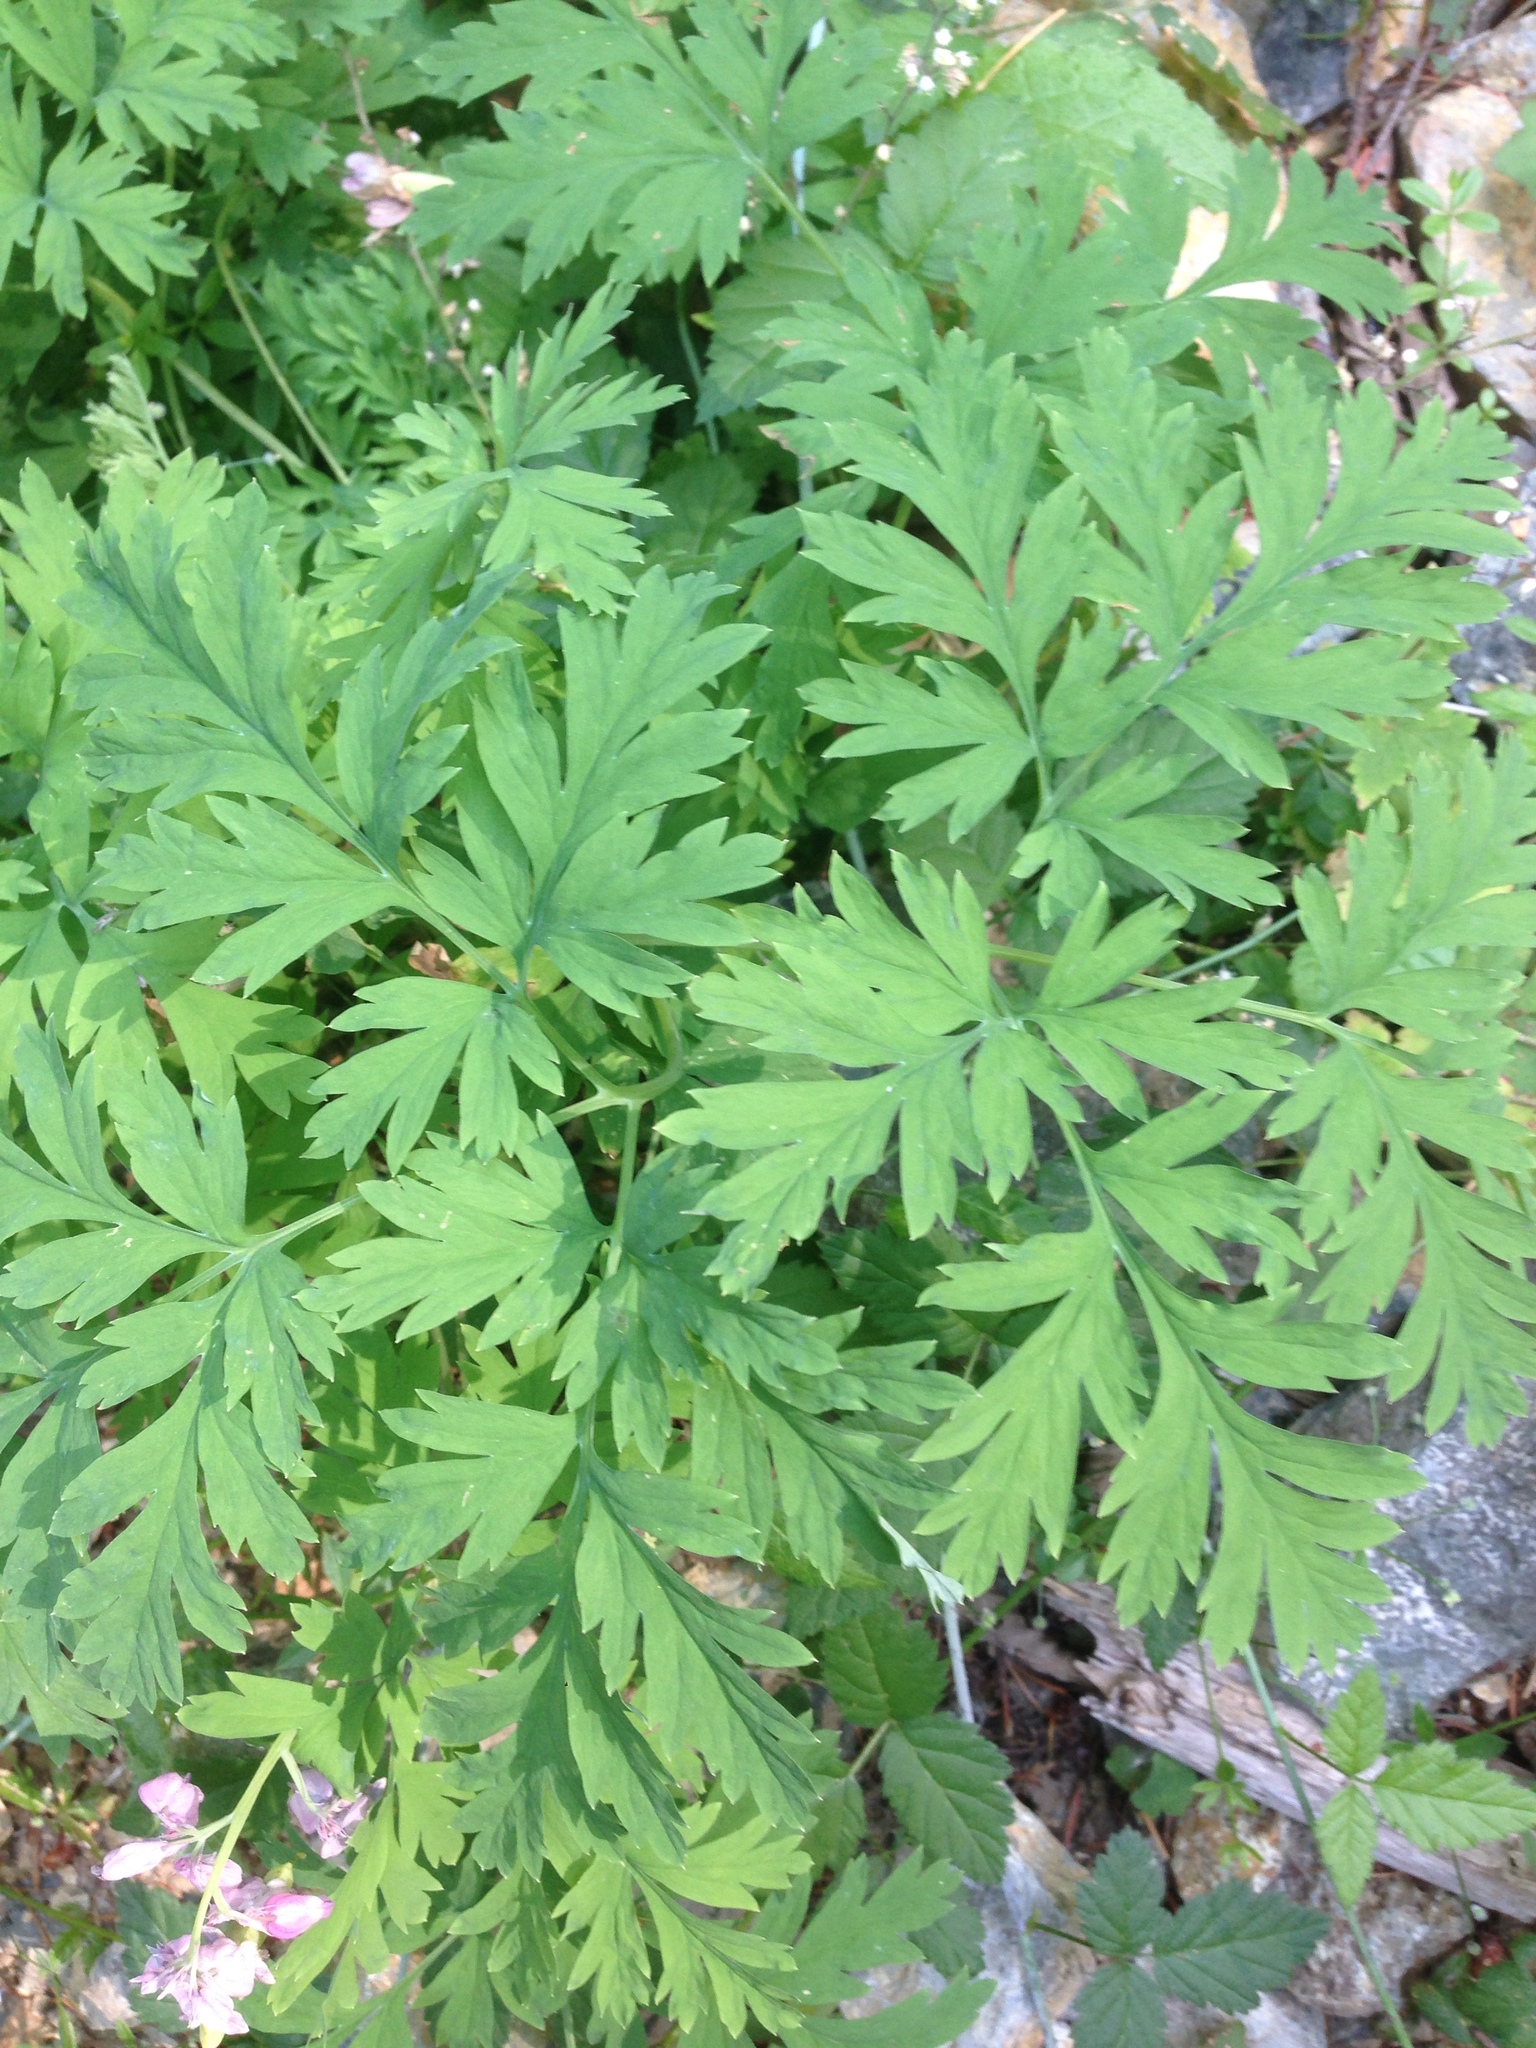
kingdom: Plantae
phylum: Tracheophyta
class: Magnoliopsida
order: Ranunculales
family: Papaveraceae
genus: Dicentra
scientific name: Dicentra formosa
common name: Bleeding-heart
